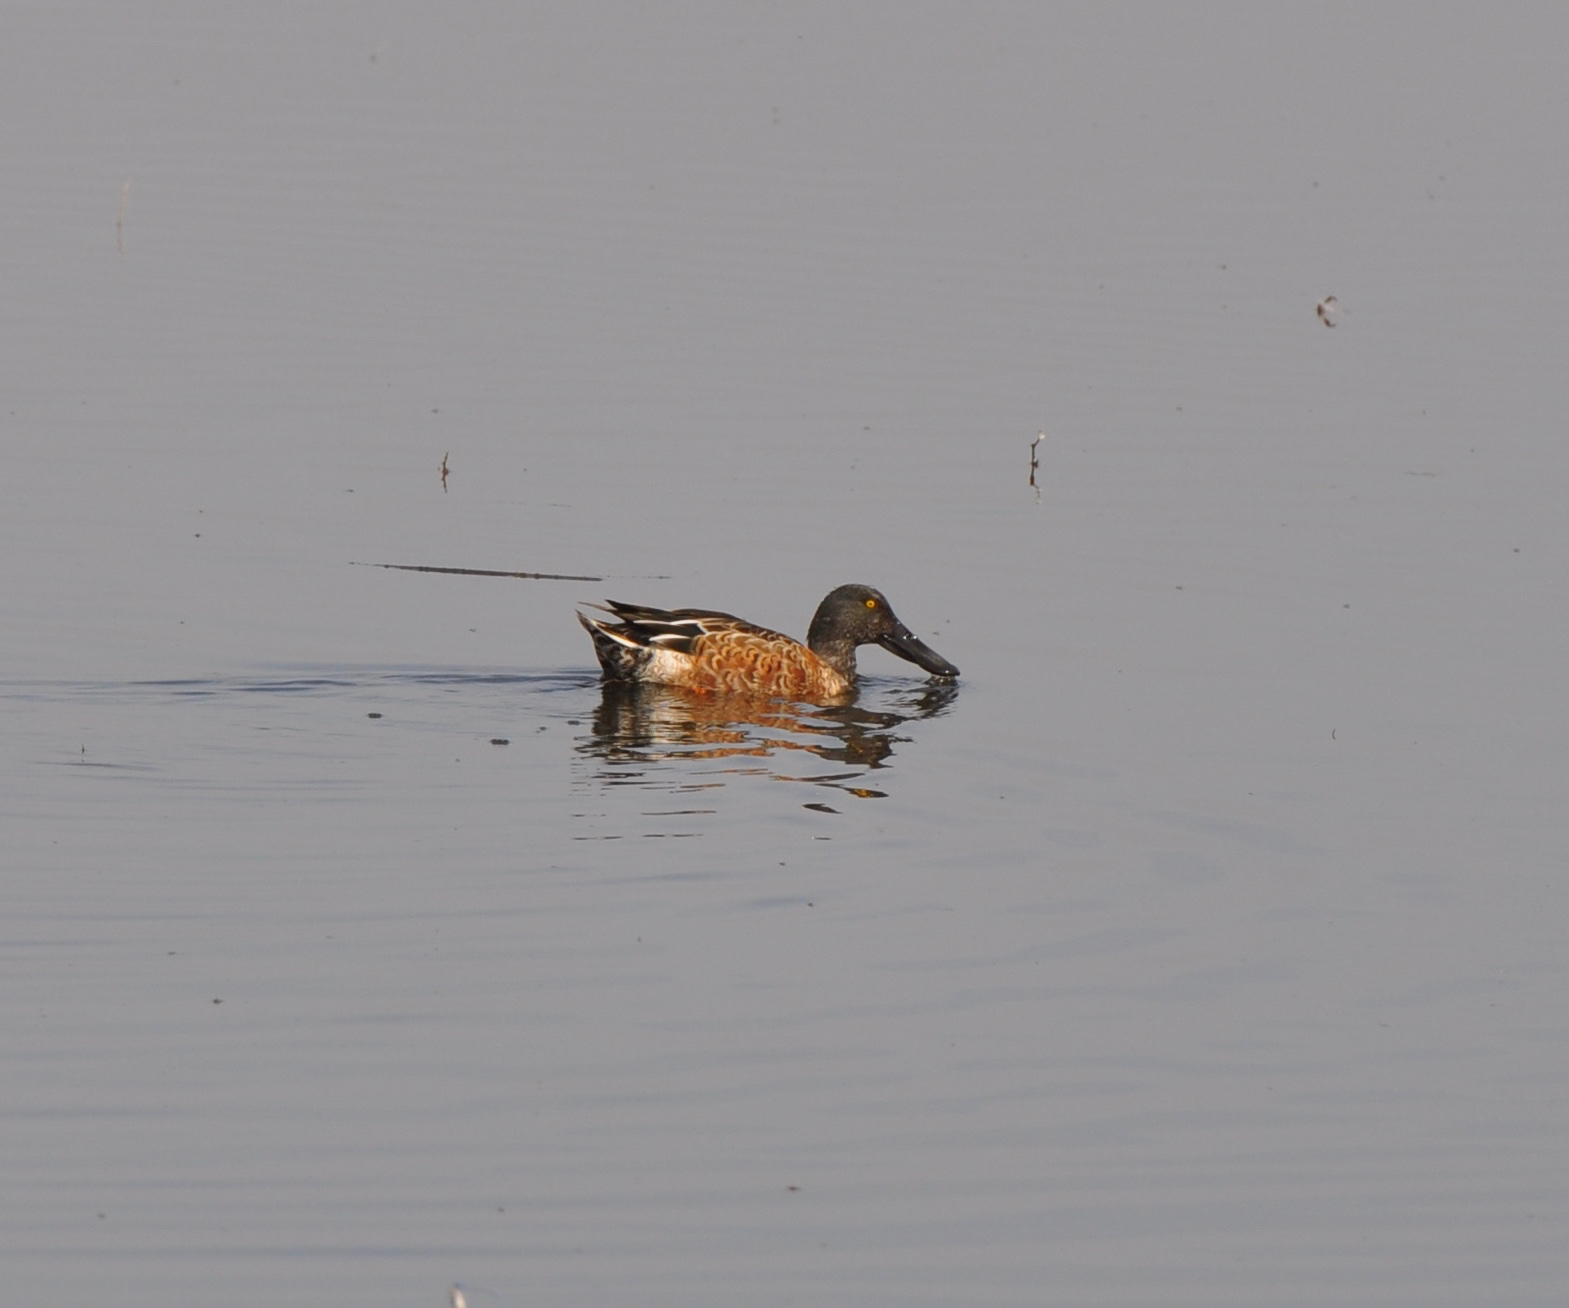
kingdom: Animalia
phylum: Chordata
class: Aves
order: Anseriformes
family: Anatidae
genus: Spatula
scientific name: Spatula clypeata
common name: Northern shoveler
